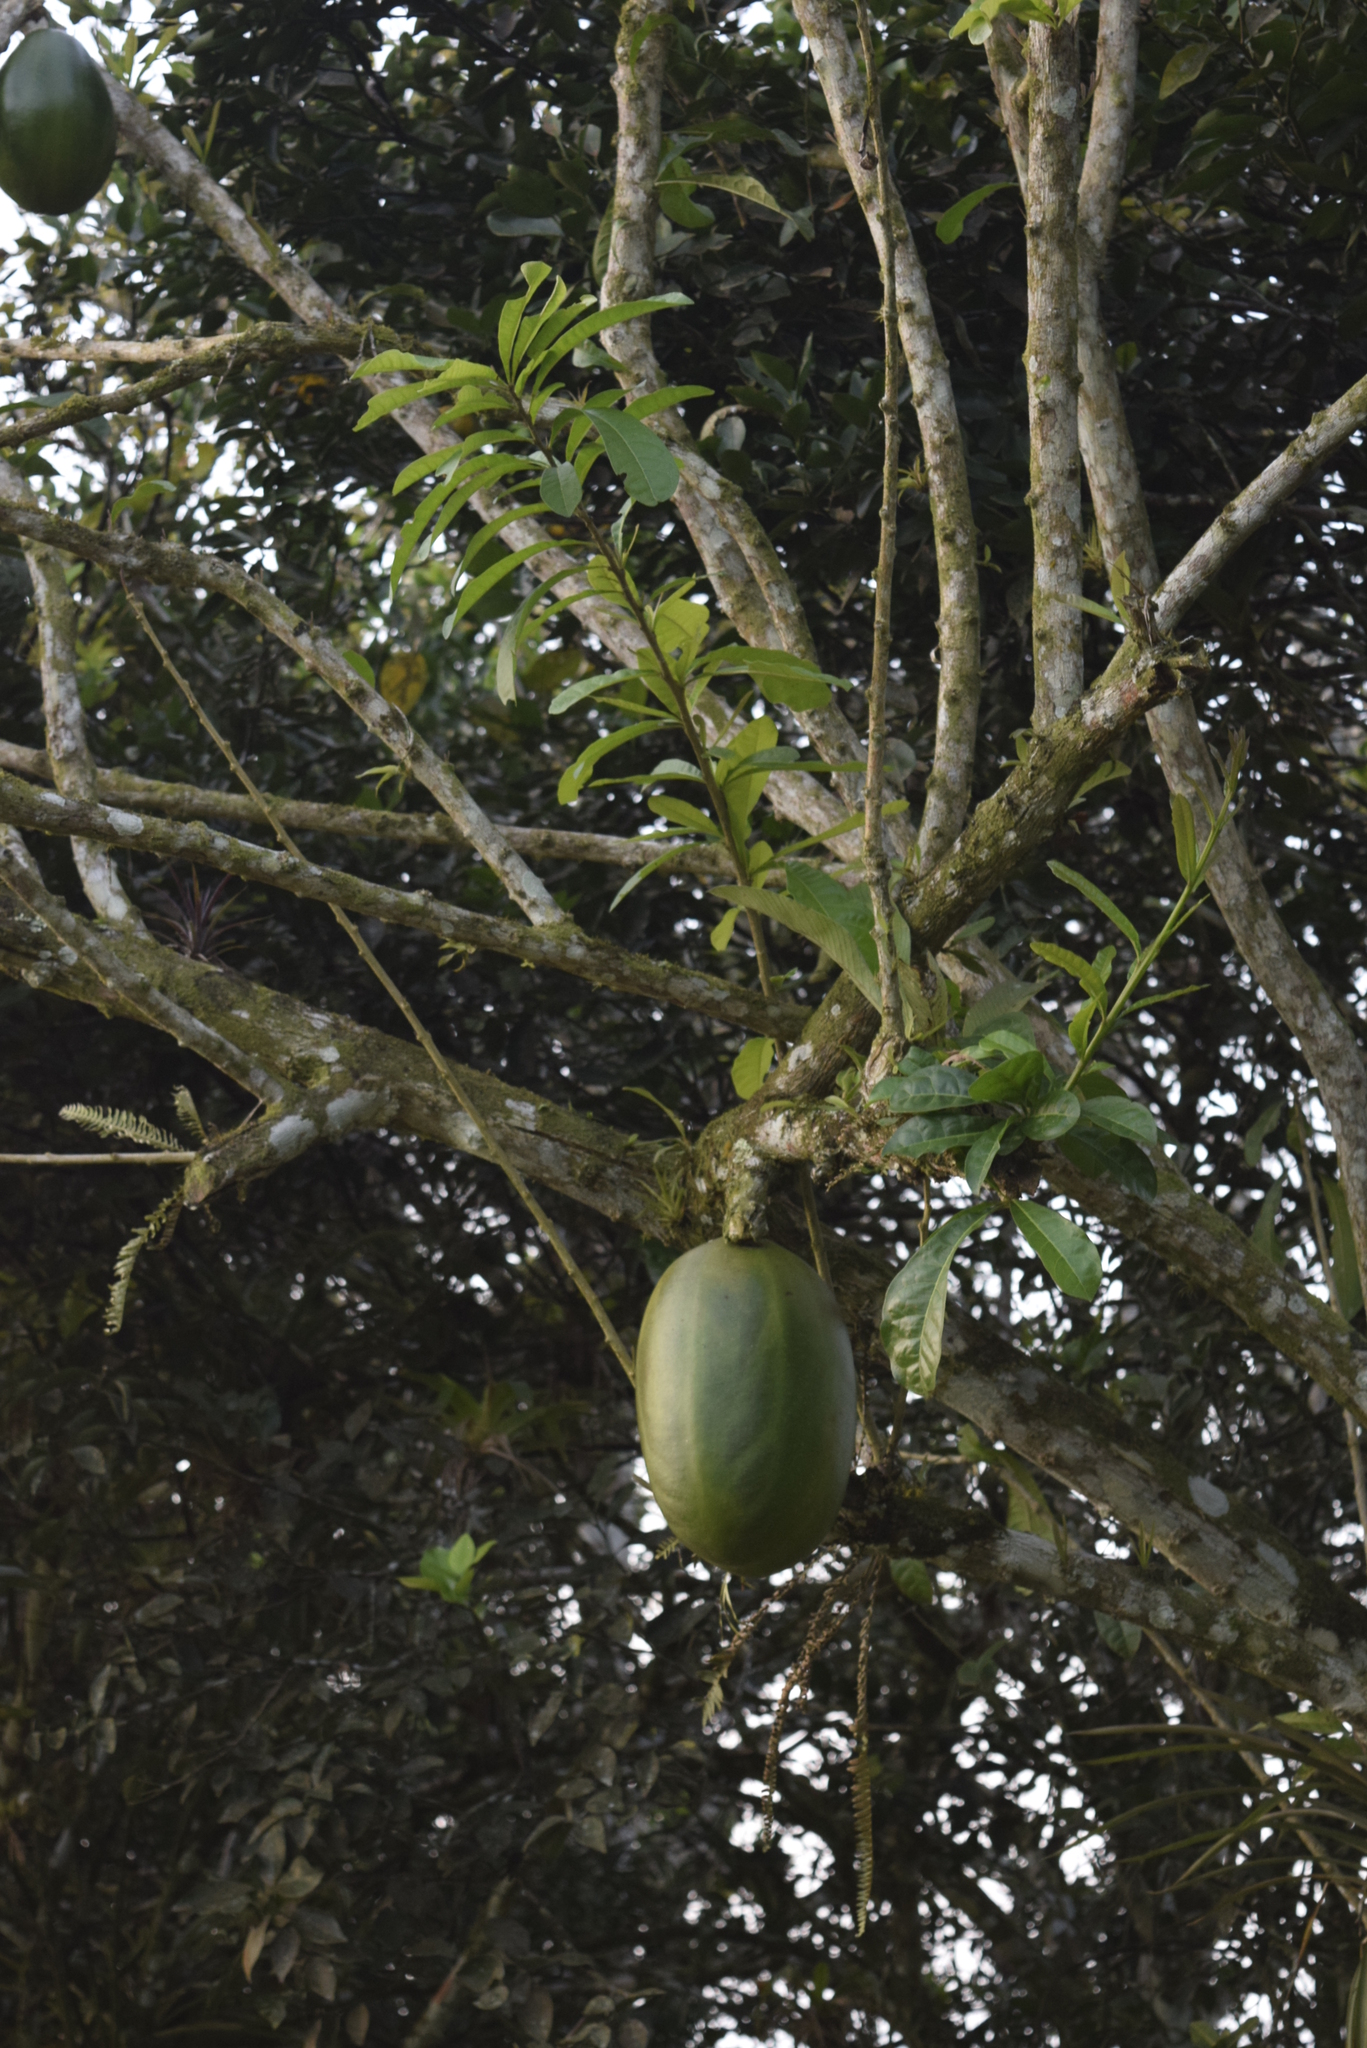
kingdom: Plantae
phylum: Tracheophyta
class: Magnoliopsida
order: Lamiales
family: Bignoniaceae
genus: Crescentia
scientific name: Crescentia cujete
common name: Calabash
